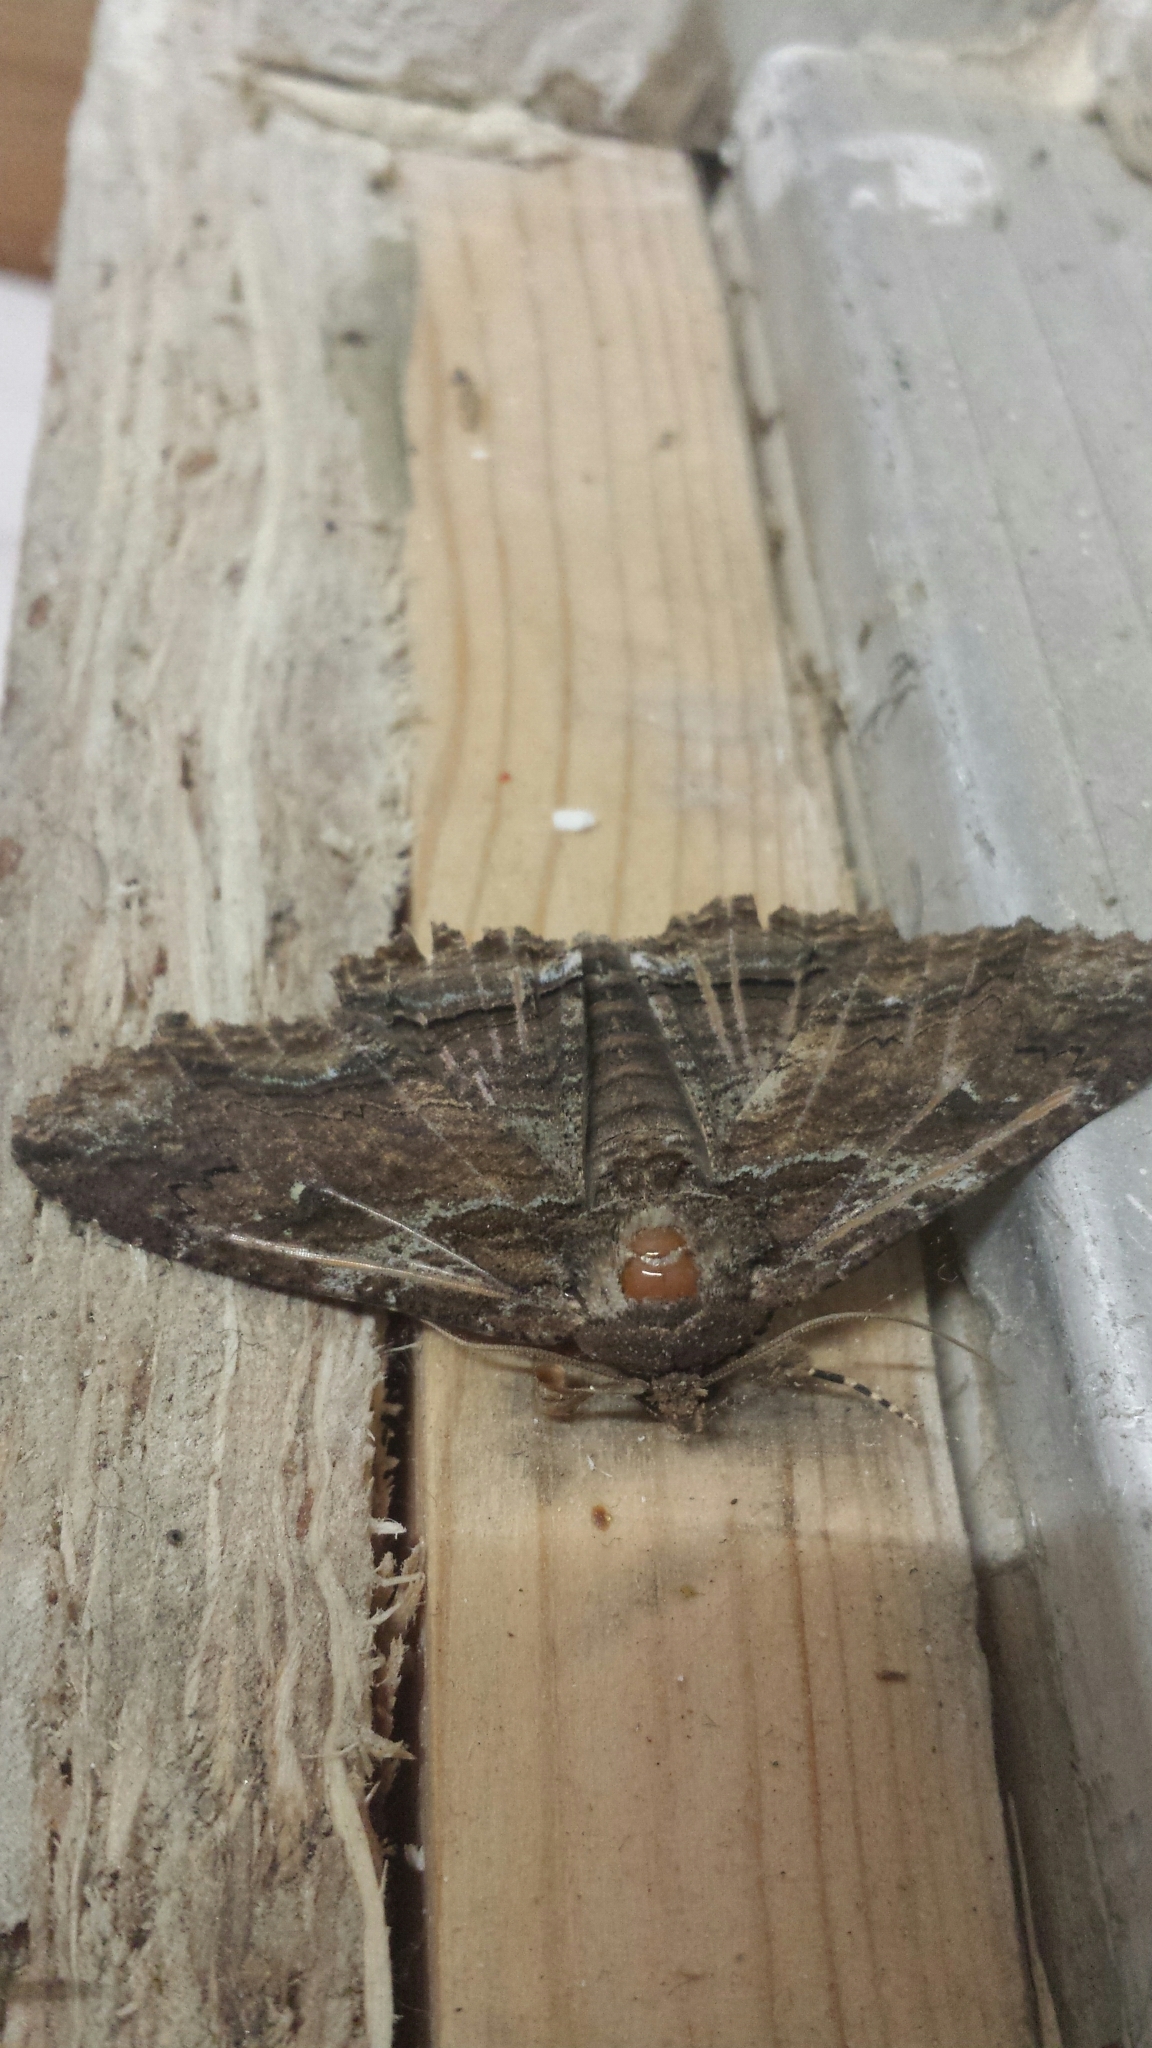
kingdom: Animalia
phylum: Arthropoda
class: Insecta
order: Lepidoptera
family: Erebidae
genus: Zale
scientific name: Zale lunata
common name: Lunate zale moth
